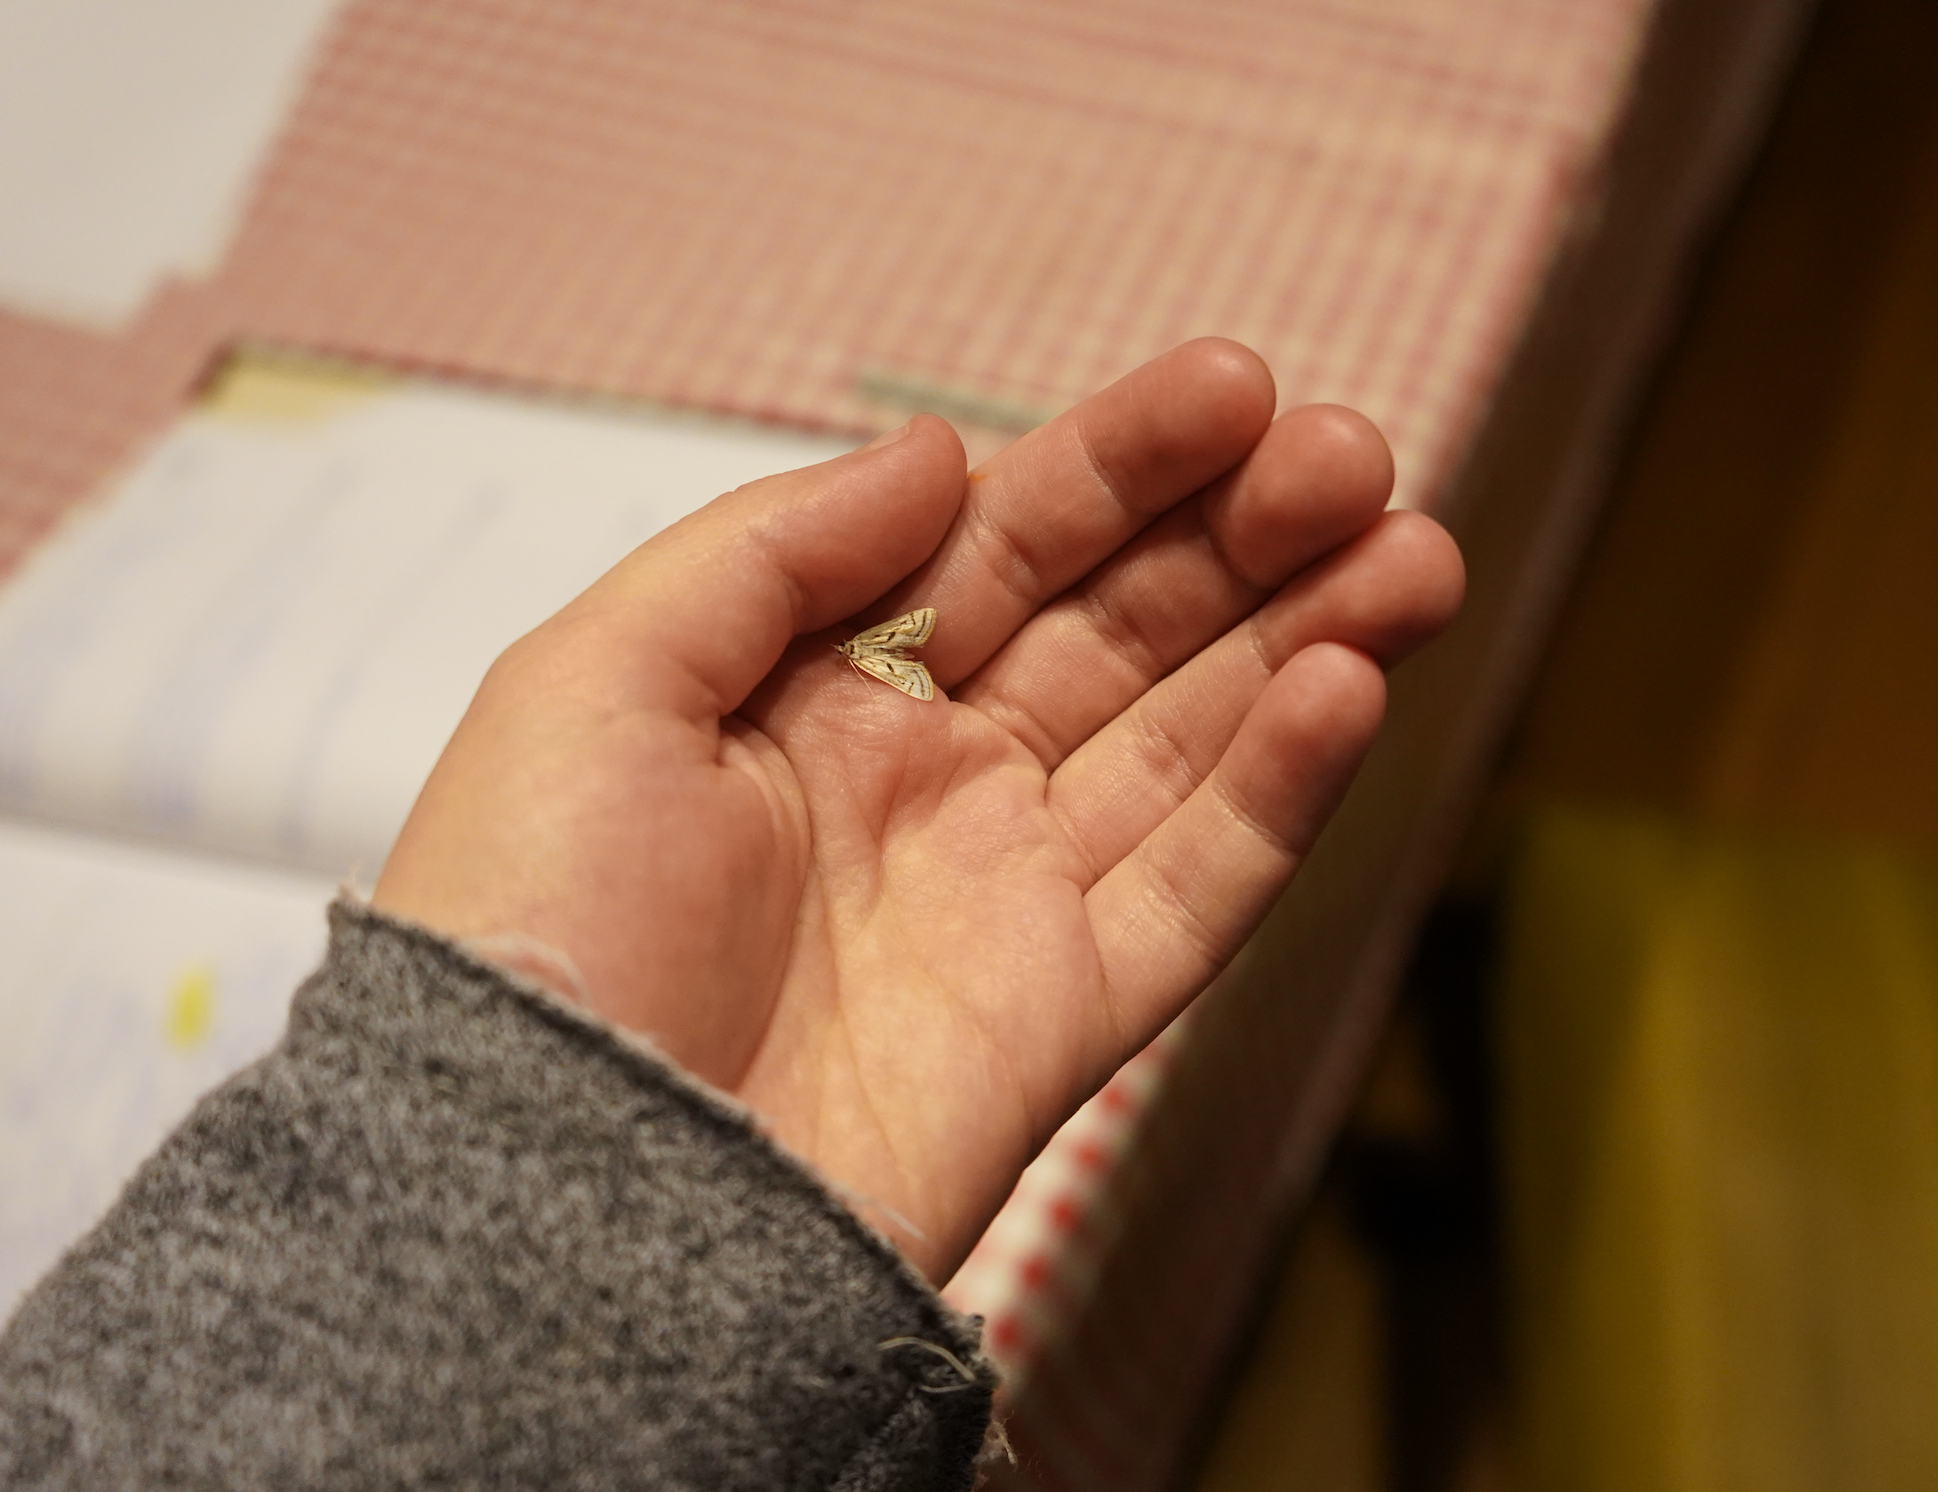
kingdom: Animalia
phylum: Arthropoda
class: Insecta
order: Lepidoptera
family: Crambidae
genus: Parapoynx
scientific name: Parapoynx badiusalis
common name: Chestnut-marked pondweed moth
